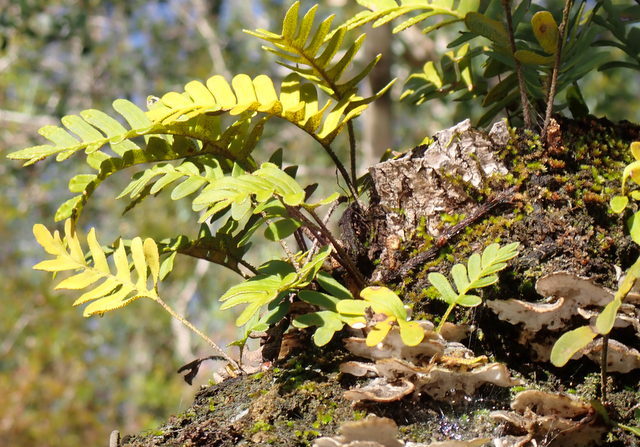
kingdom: Plantae
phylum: Tracheophyta
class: Polypodiopsida
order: Polypodiales
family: Polypodiaceae
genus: Pleopeltis
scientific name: Pleopeltis michauxiana
